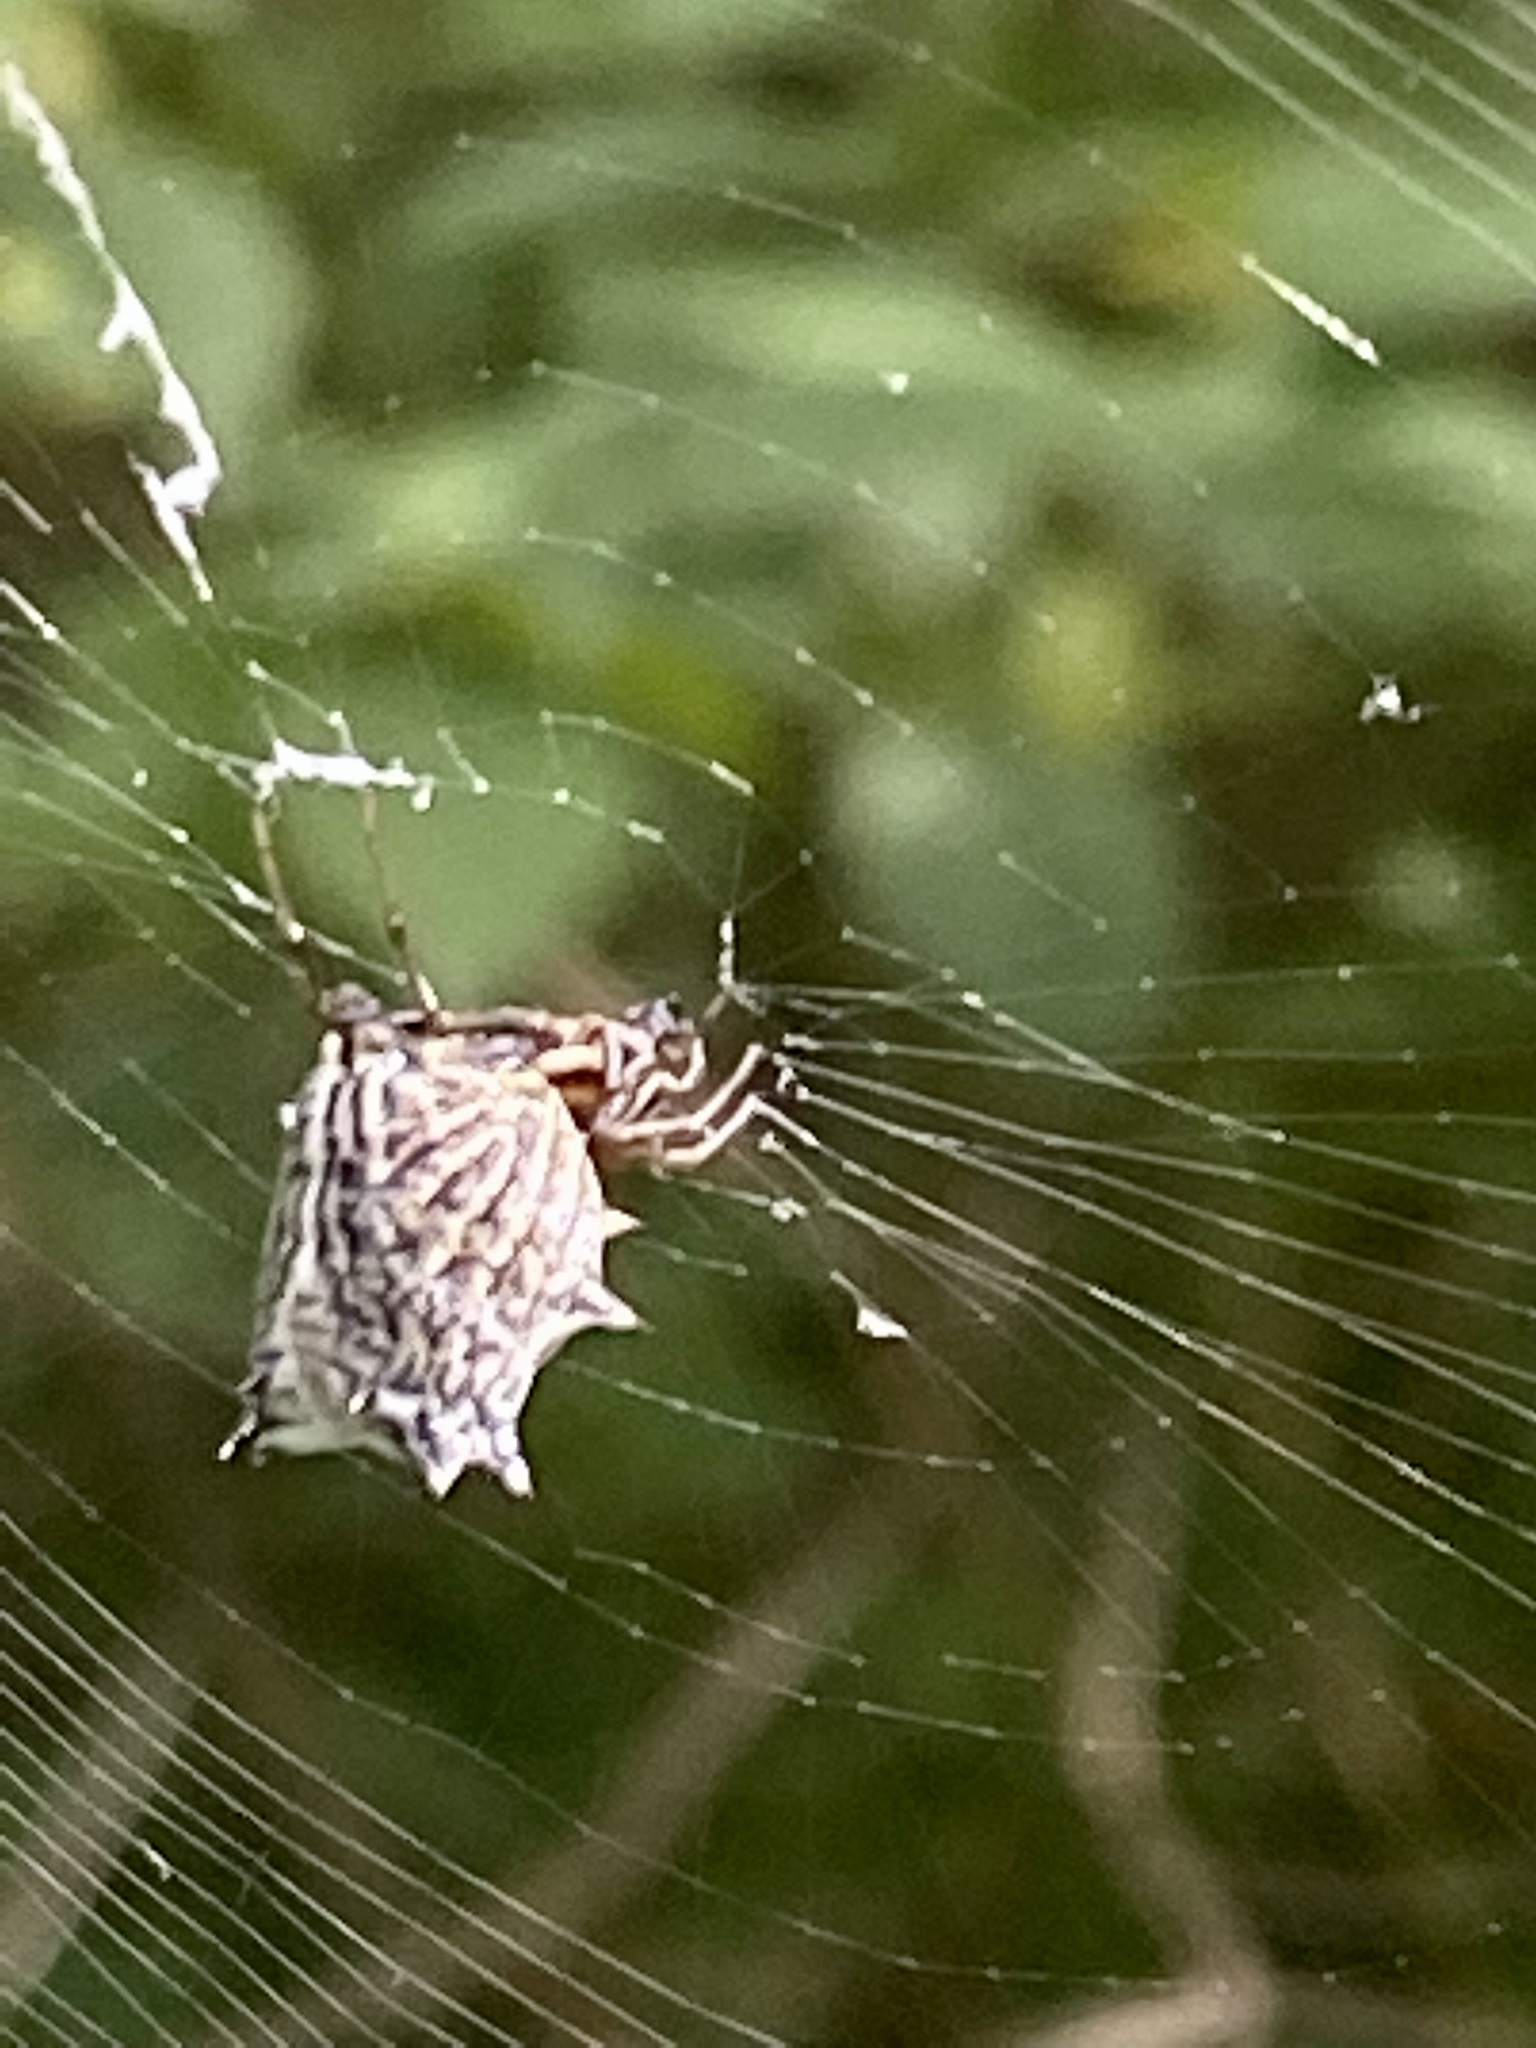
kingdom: Animalia
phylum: Arthropoda
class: Arachnida
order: Araneae
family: Araneidae
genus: Micrathena
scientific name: Micrathena gracilis
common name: Orb weavers
